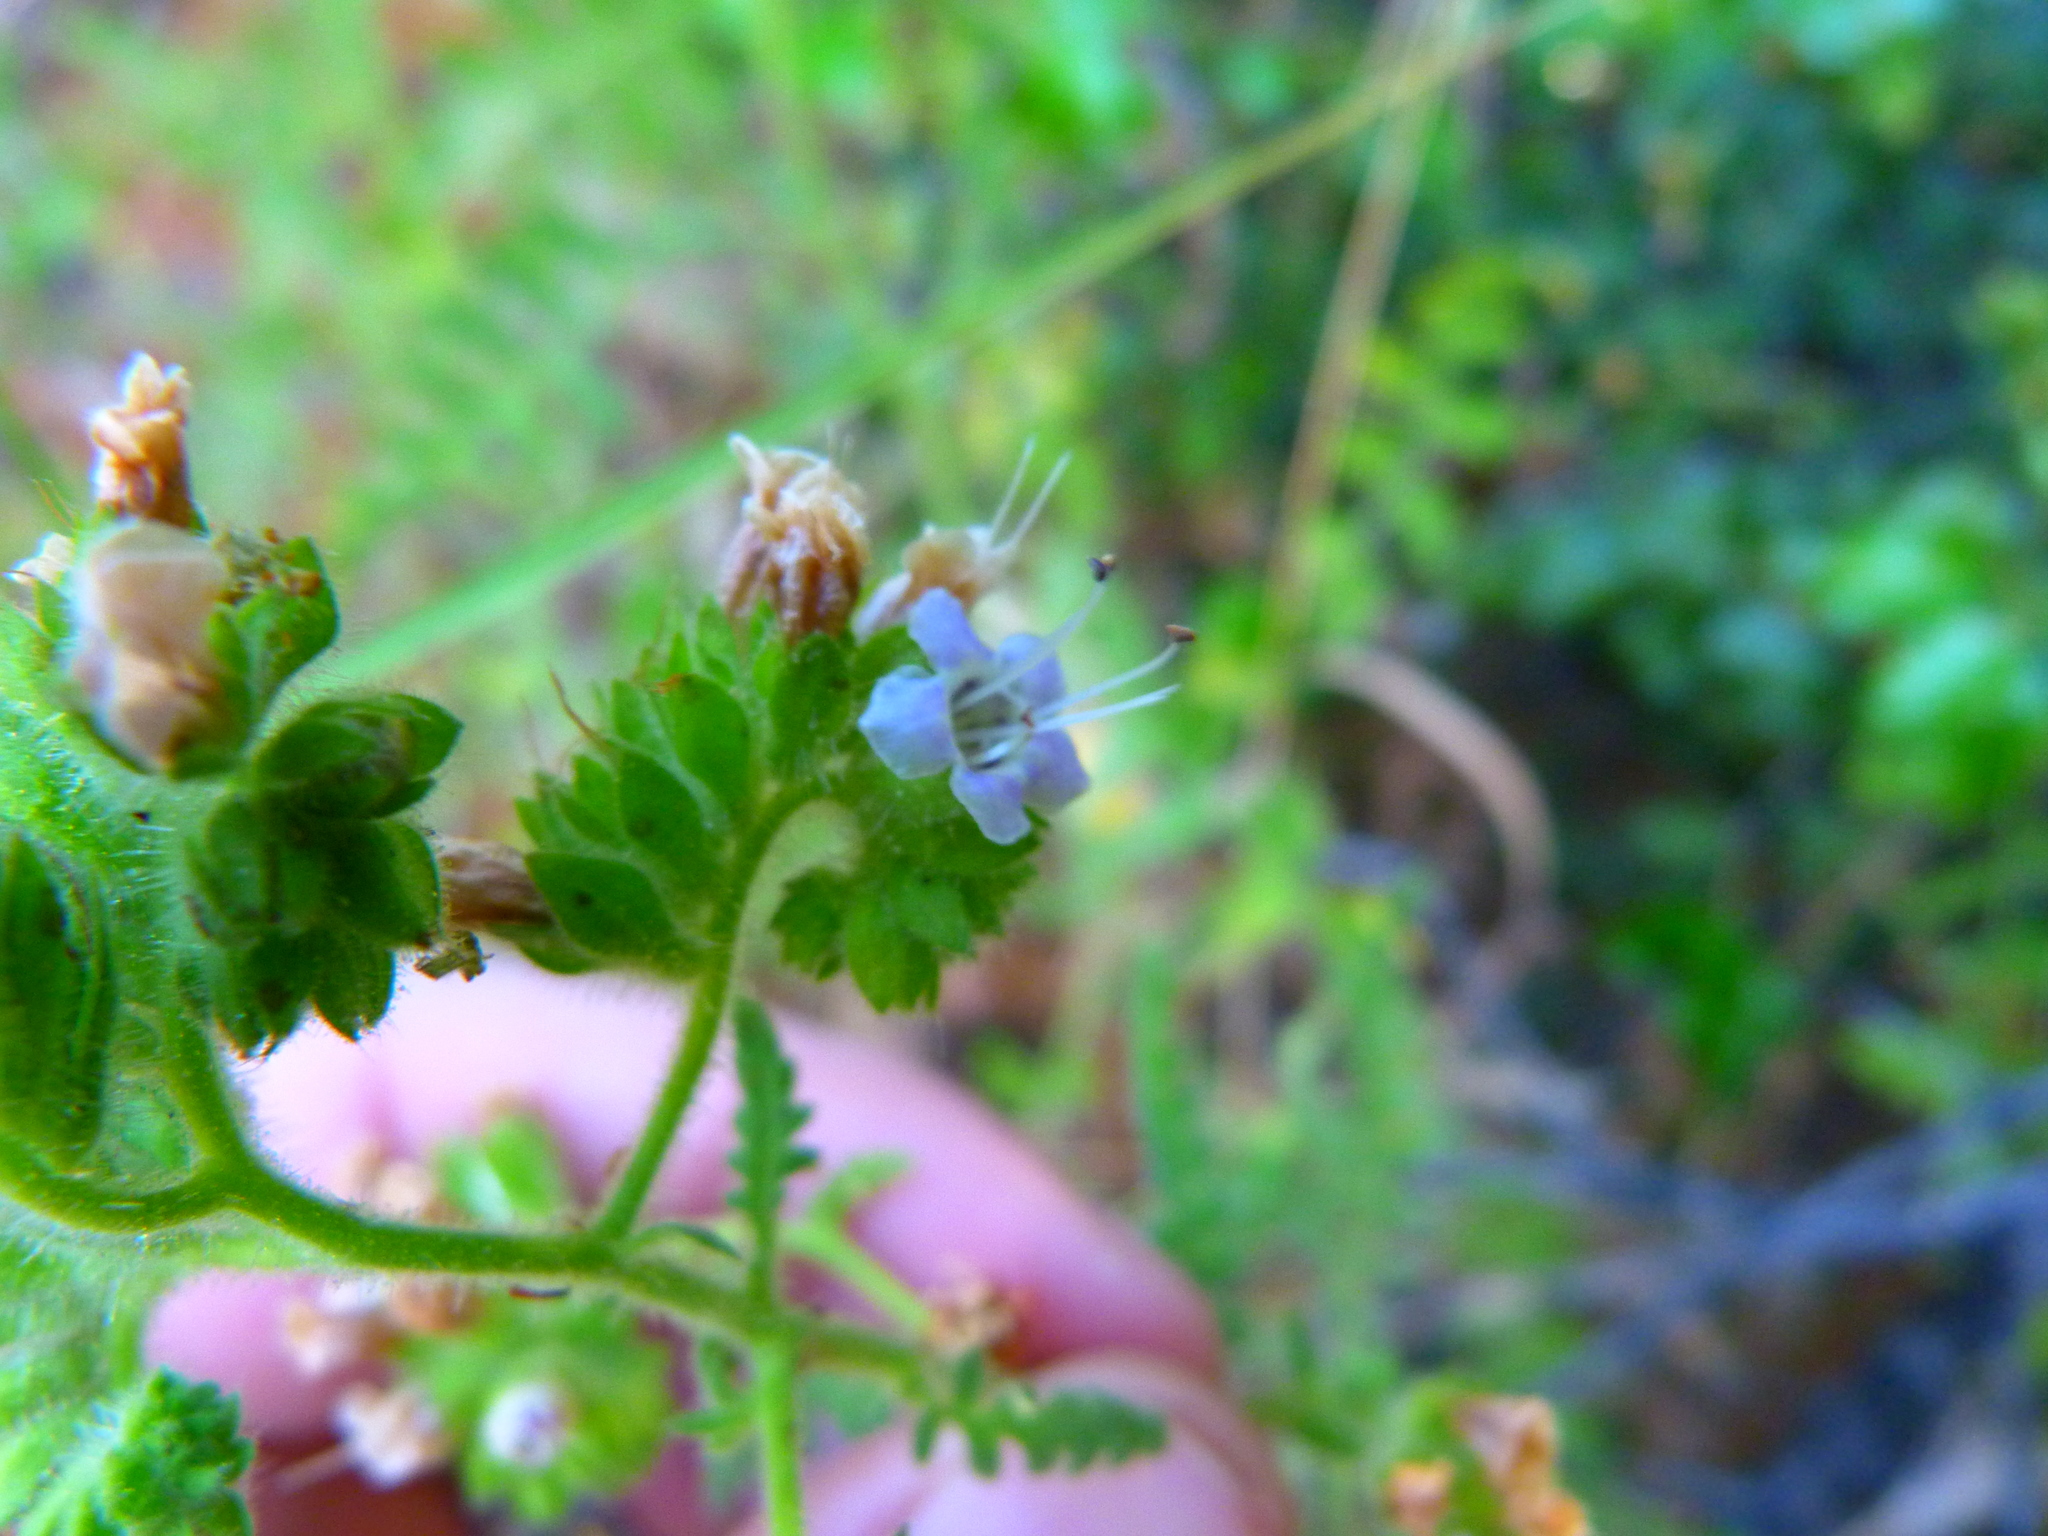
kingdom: Plantae
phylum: Tracheophyta
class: Magnoliopsida
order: Boraginales
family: Hydrophyllaceae
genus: Phacelia
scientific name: Phacelia ramosissima
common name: Branching phacelia
